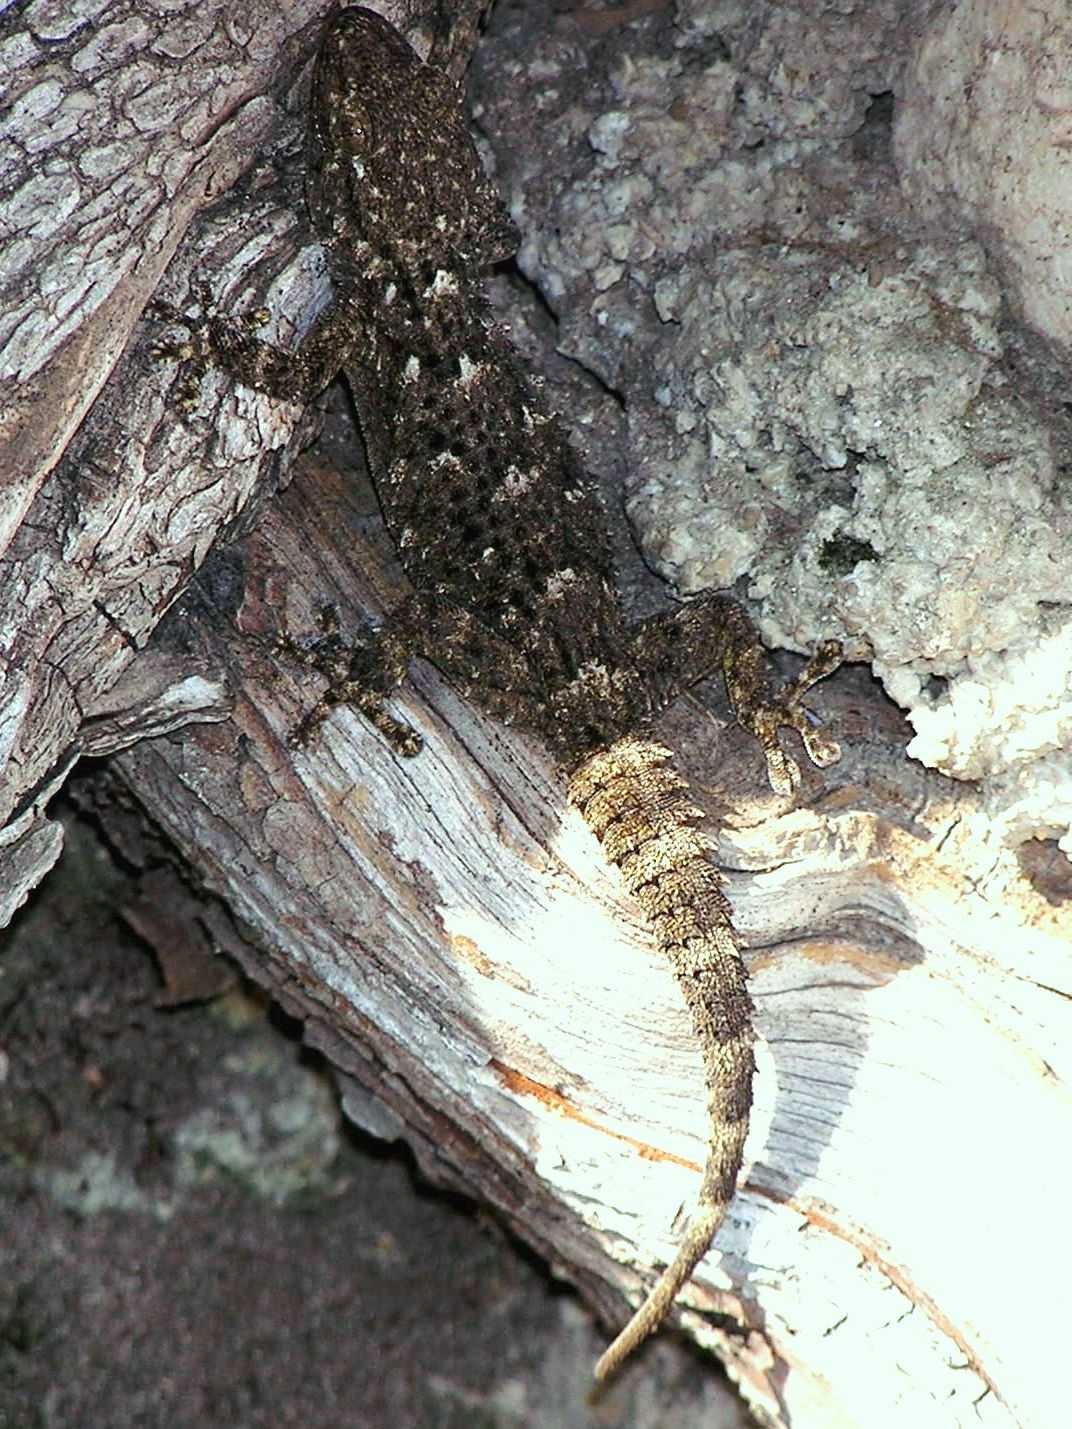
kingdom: Animalia
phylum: Chordata
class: Squamata
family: Phyllodactylidae
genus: Tarentola
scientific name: Tarentola mauritanica
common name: Moorish gecko
